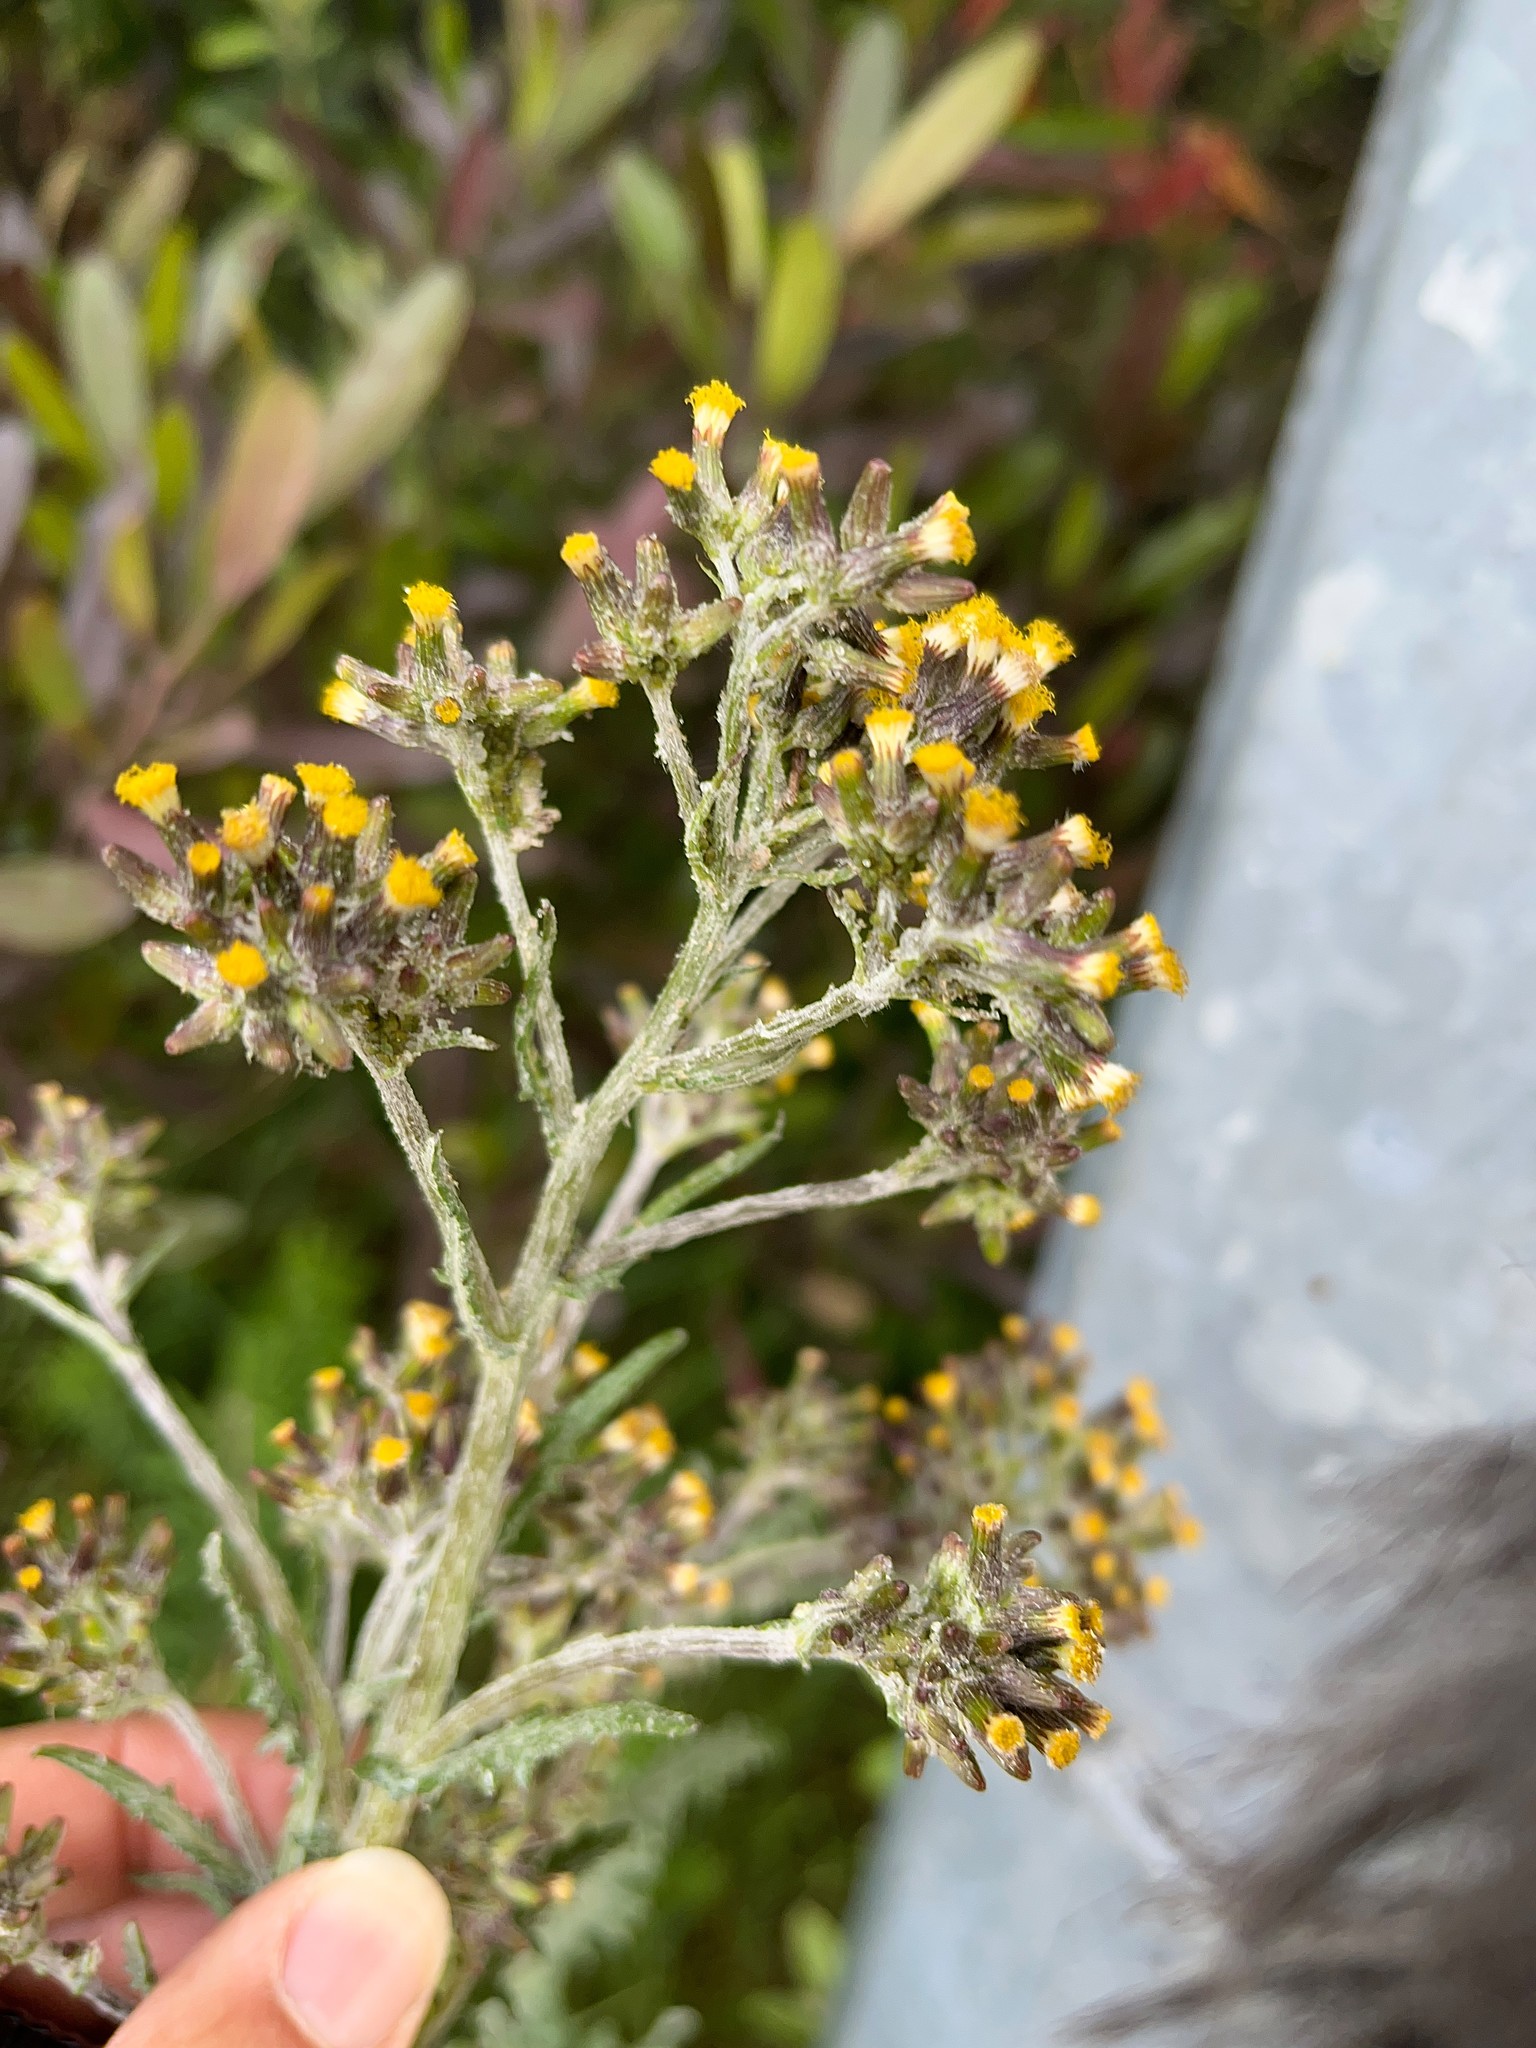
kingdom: Plantae
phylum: Tracheophyta
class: Magnoliopsida
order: Asterales
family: Asteraceae
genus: Senecio
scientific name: Senecio glomeratus
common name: Cutleaf burnweed
